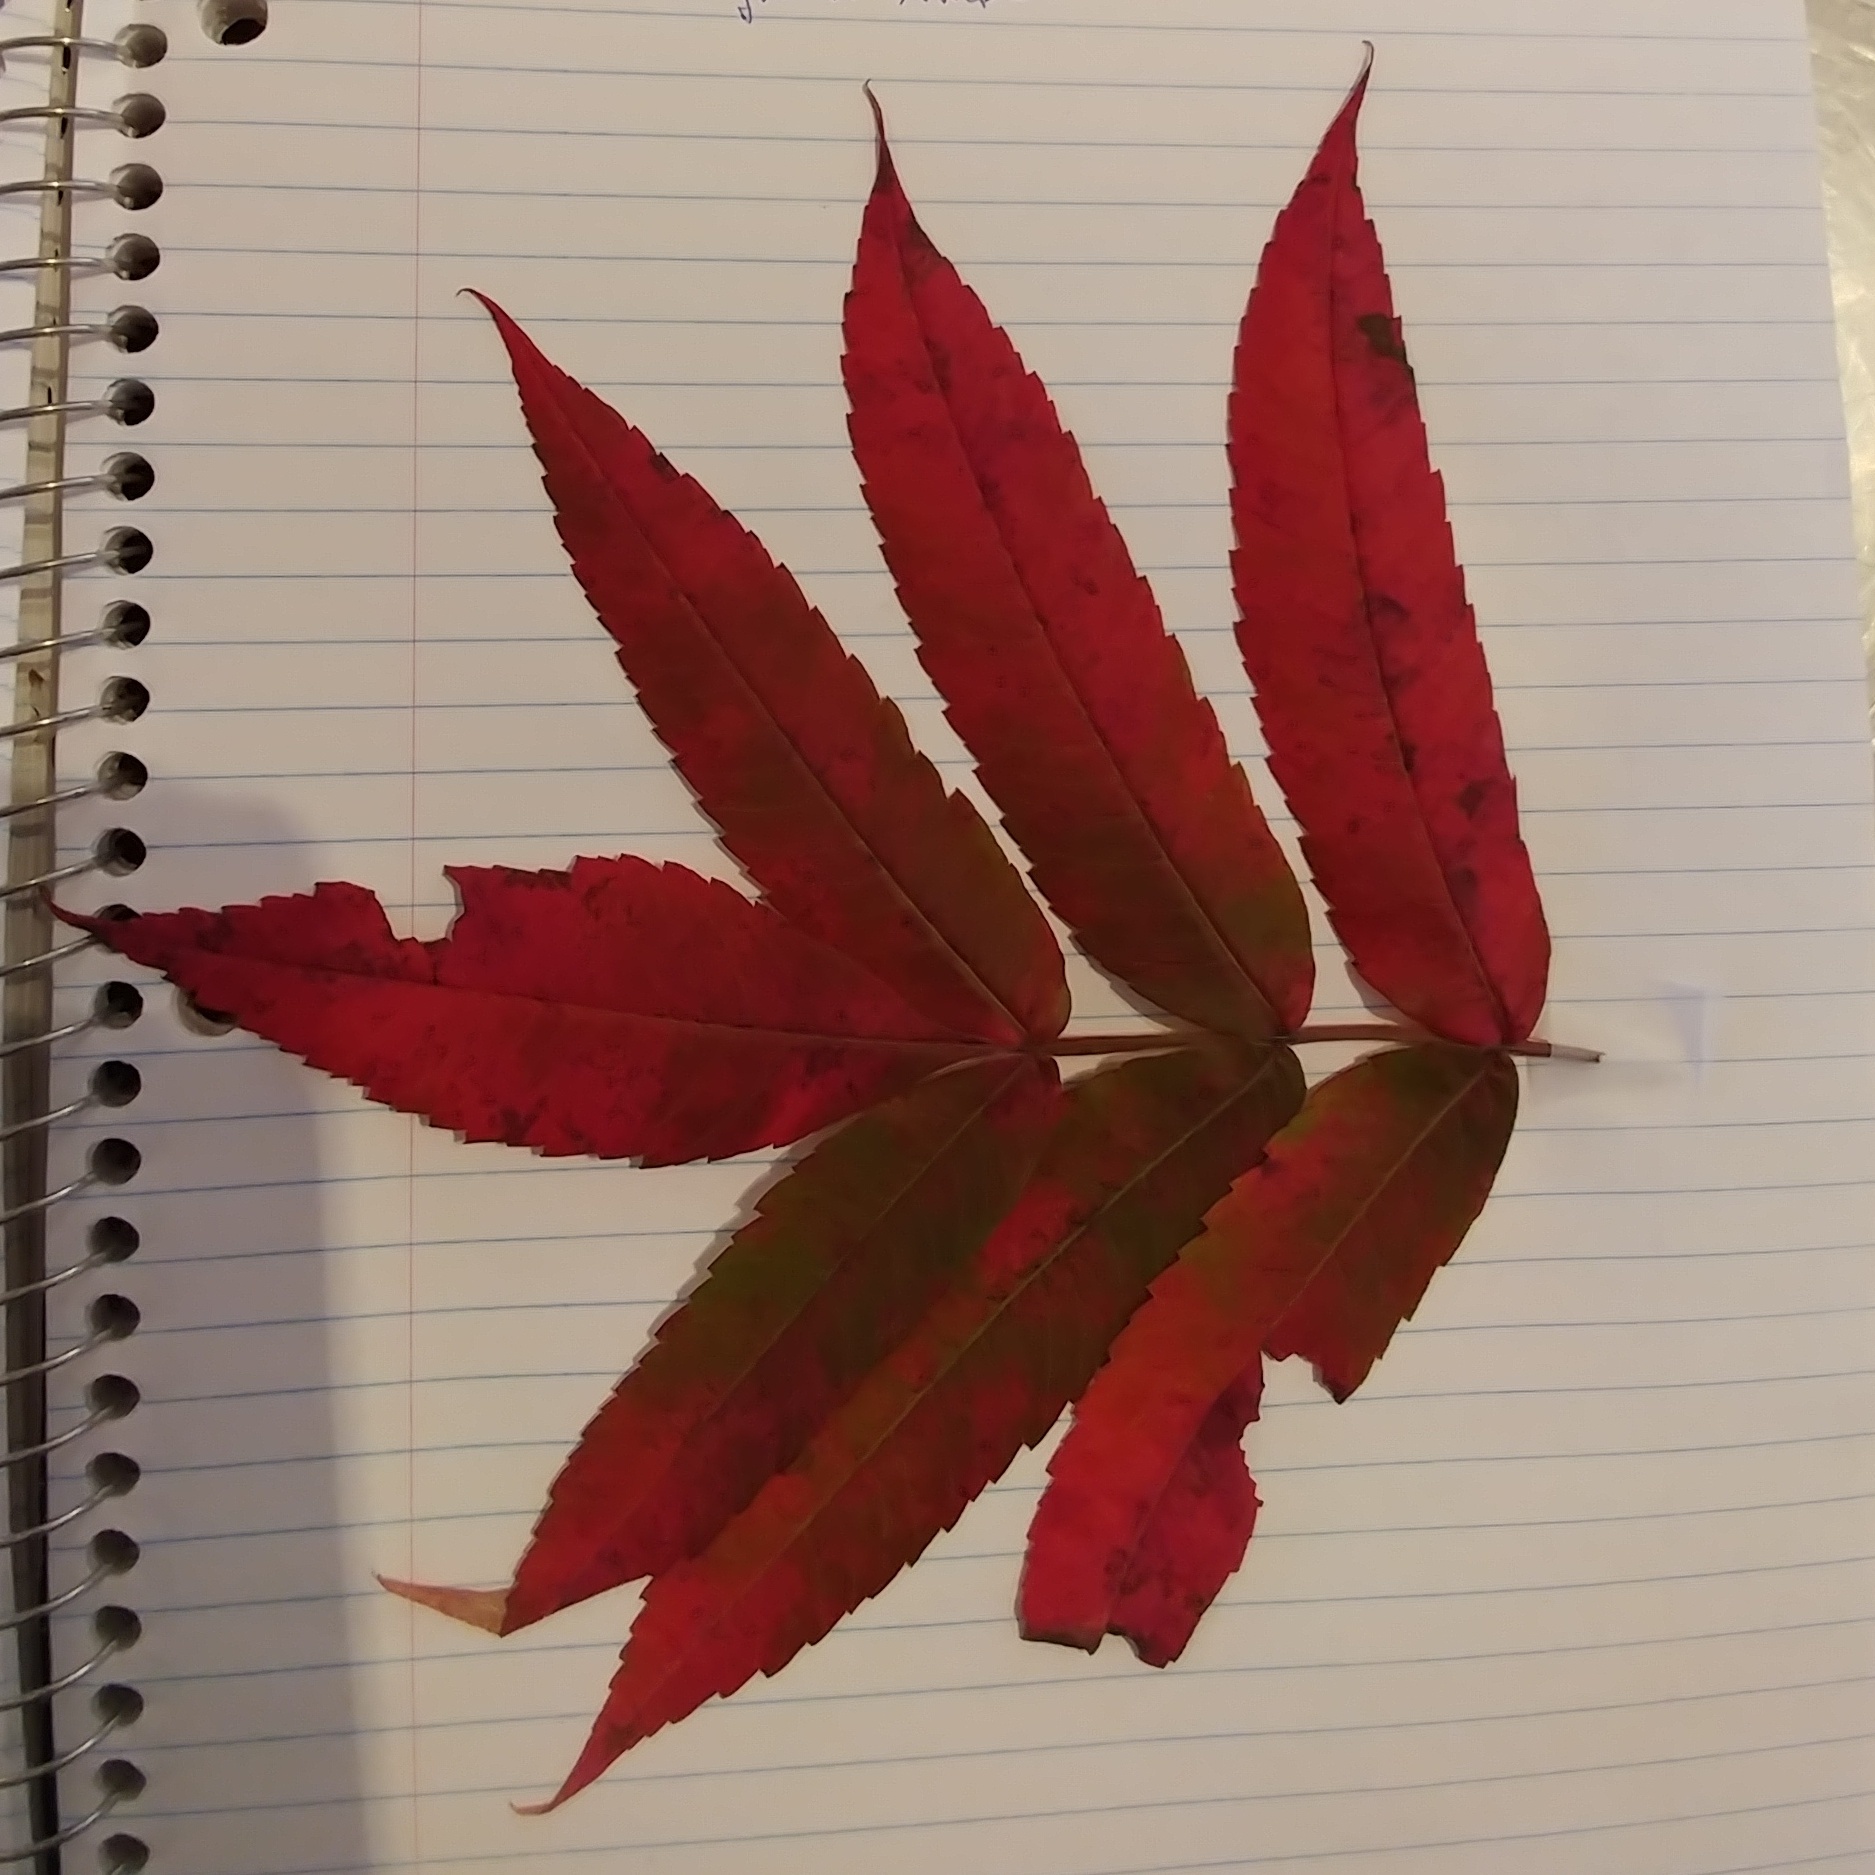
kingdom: Plantae
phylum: Tracheophyta
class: Magnoliopsida
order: Sapindales
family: Anacardiaceae
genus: Rhus
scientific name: Rhus typhina
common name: Staghorn sumac
